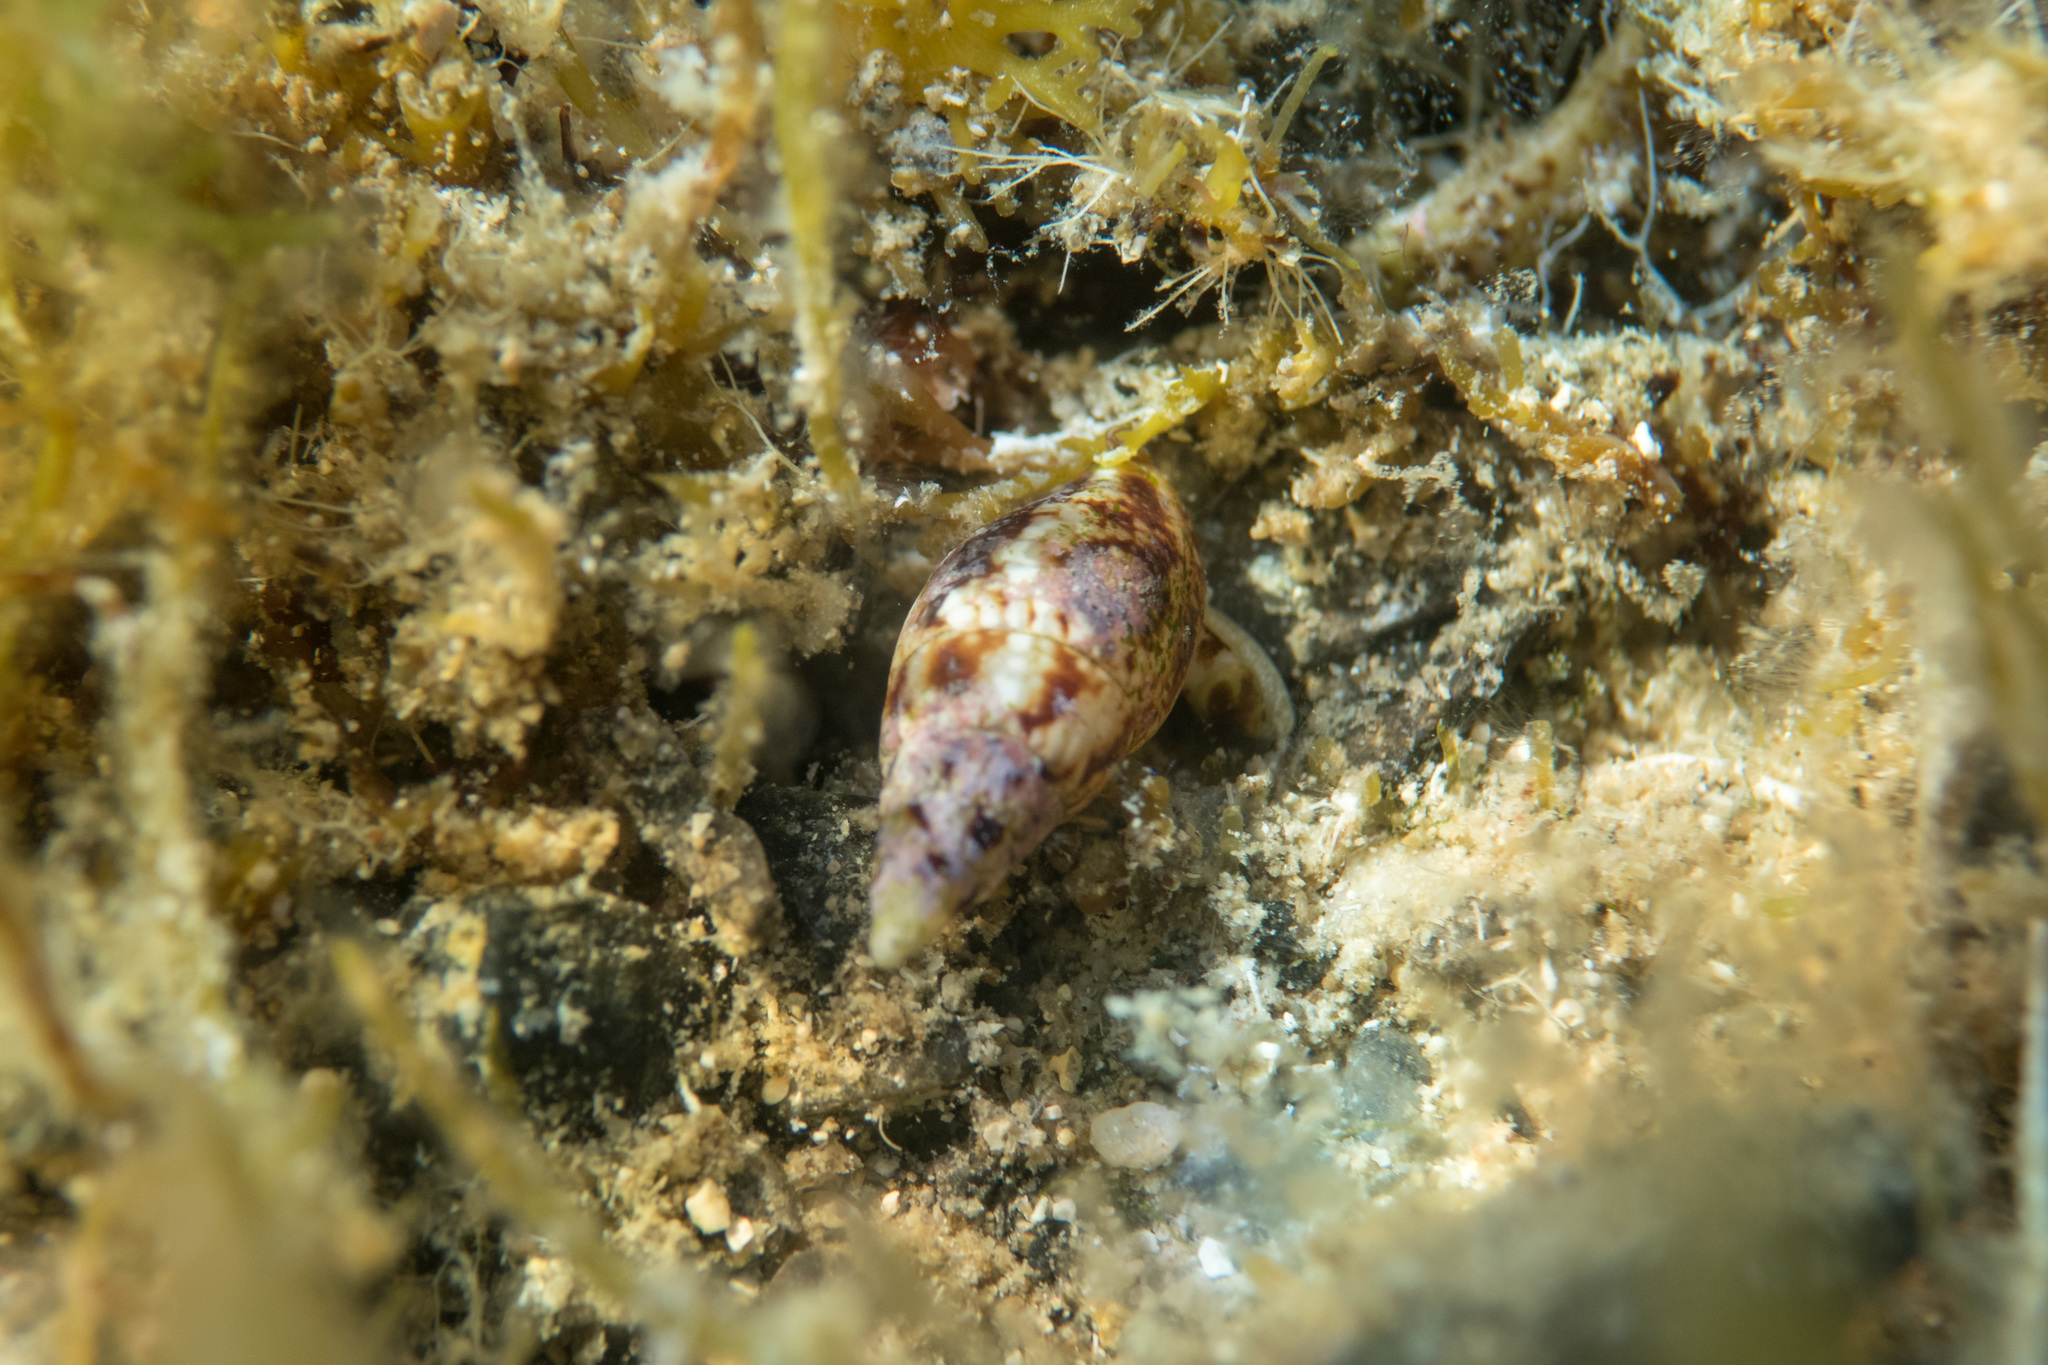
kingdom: Animalia
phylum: Mollusca
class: Gastropoda
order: Neogastropoda
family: Columbellidae
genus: Mitrella
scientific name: Mitrella scripta
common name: Music dovesnail
